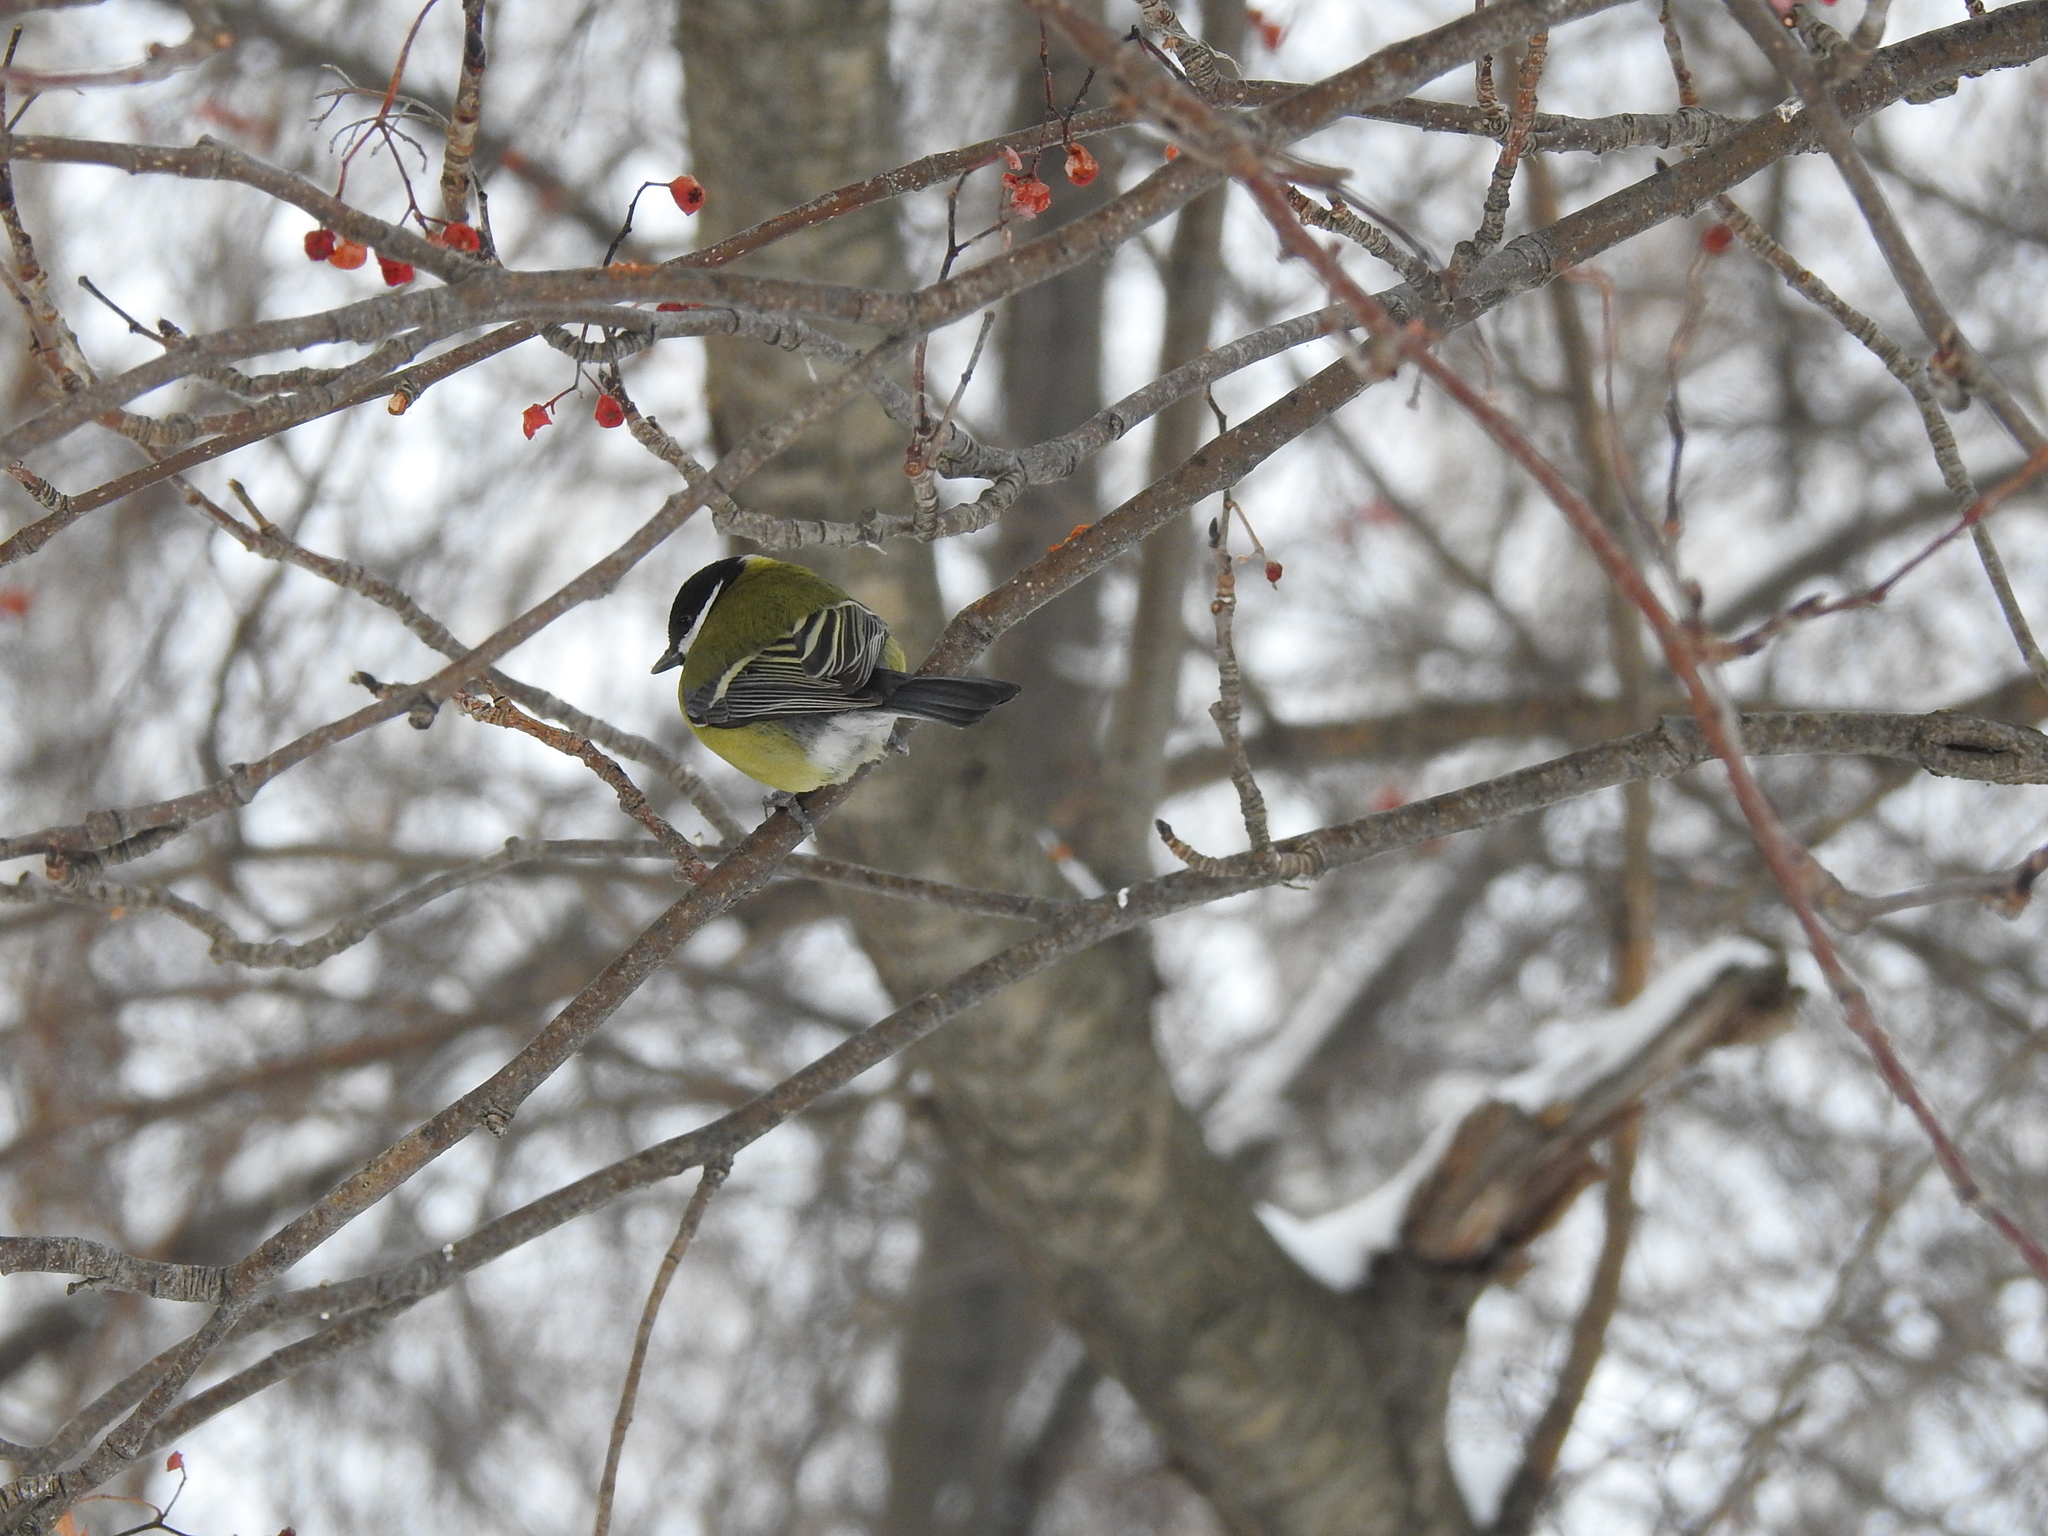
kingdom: Animalia
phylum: Chordata
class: Aves
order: Passeriformes
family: Paridae
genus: Parus
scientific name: Parus major
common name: Great tit
